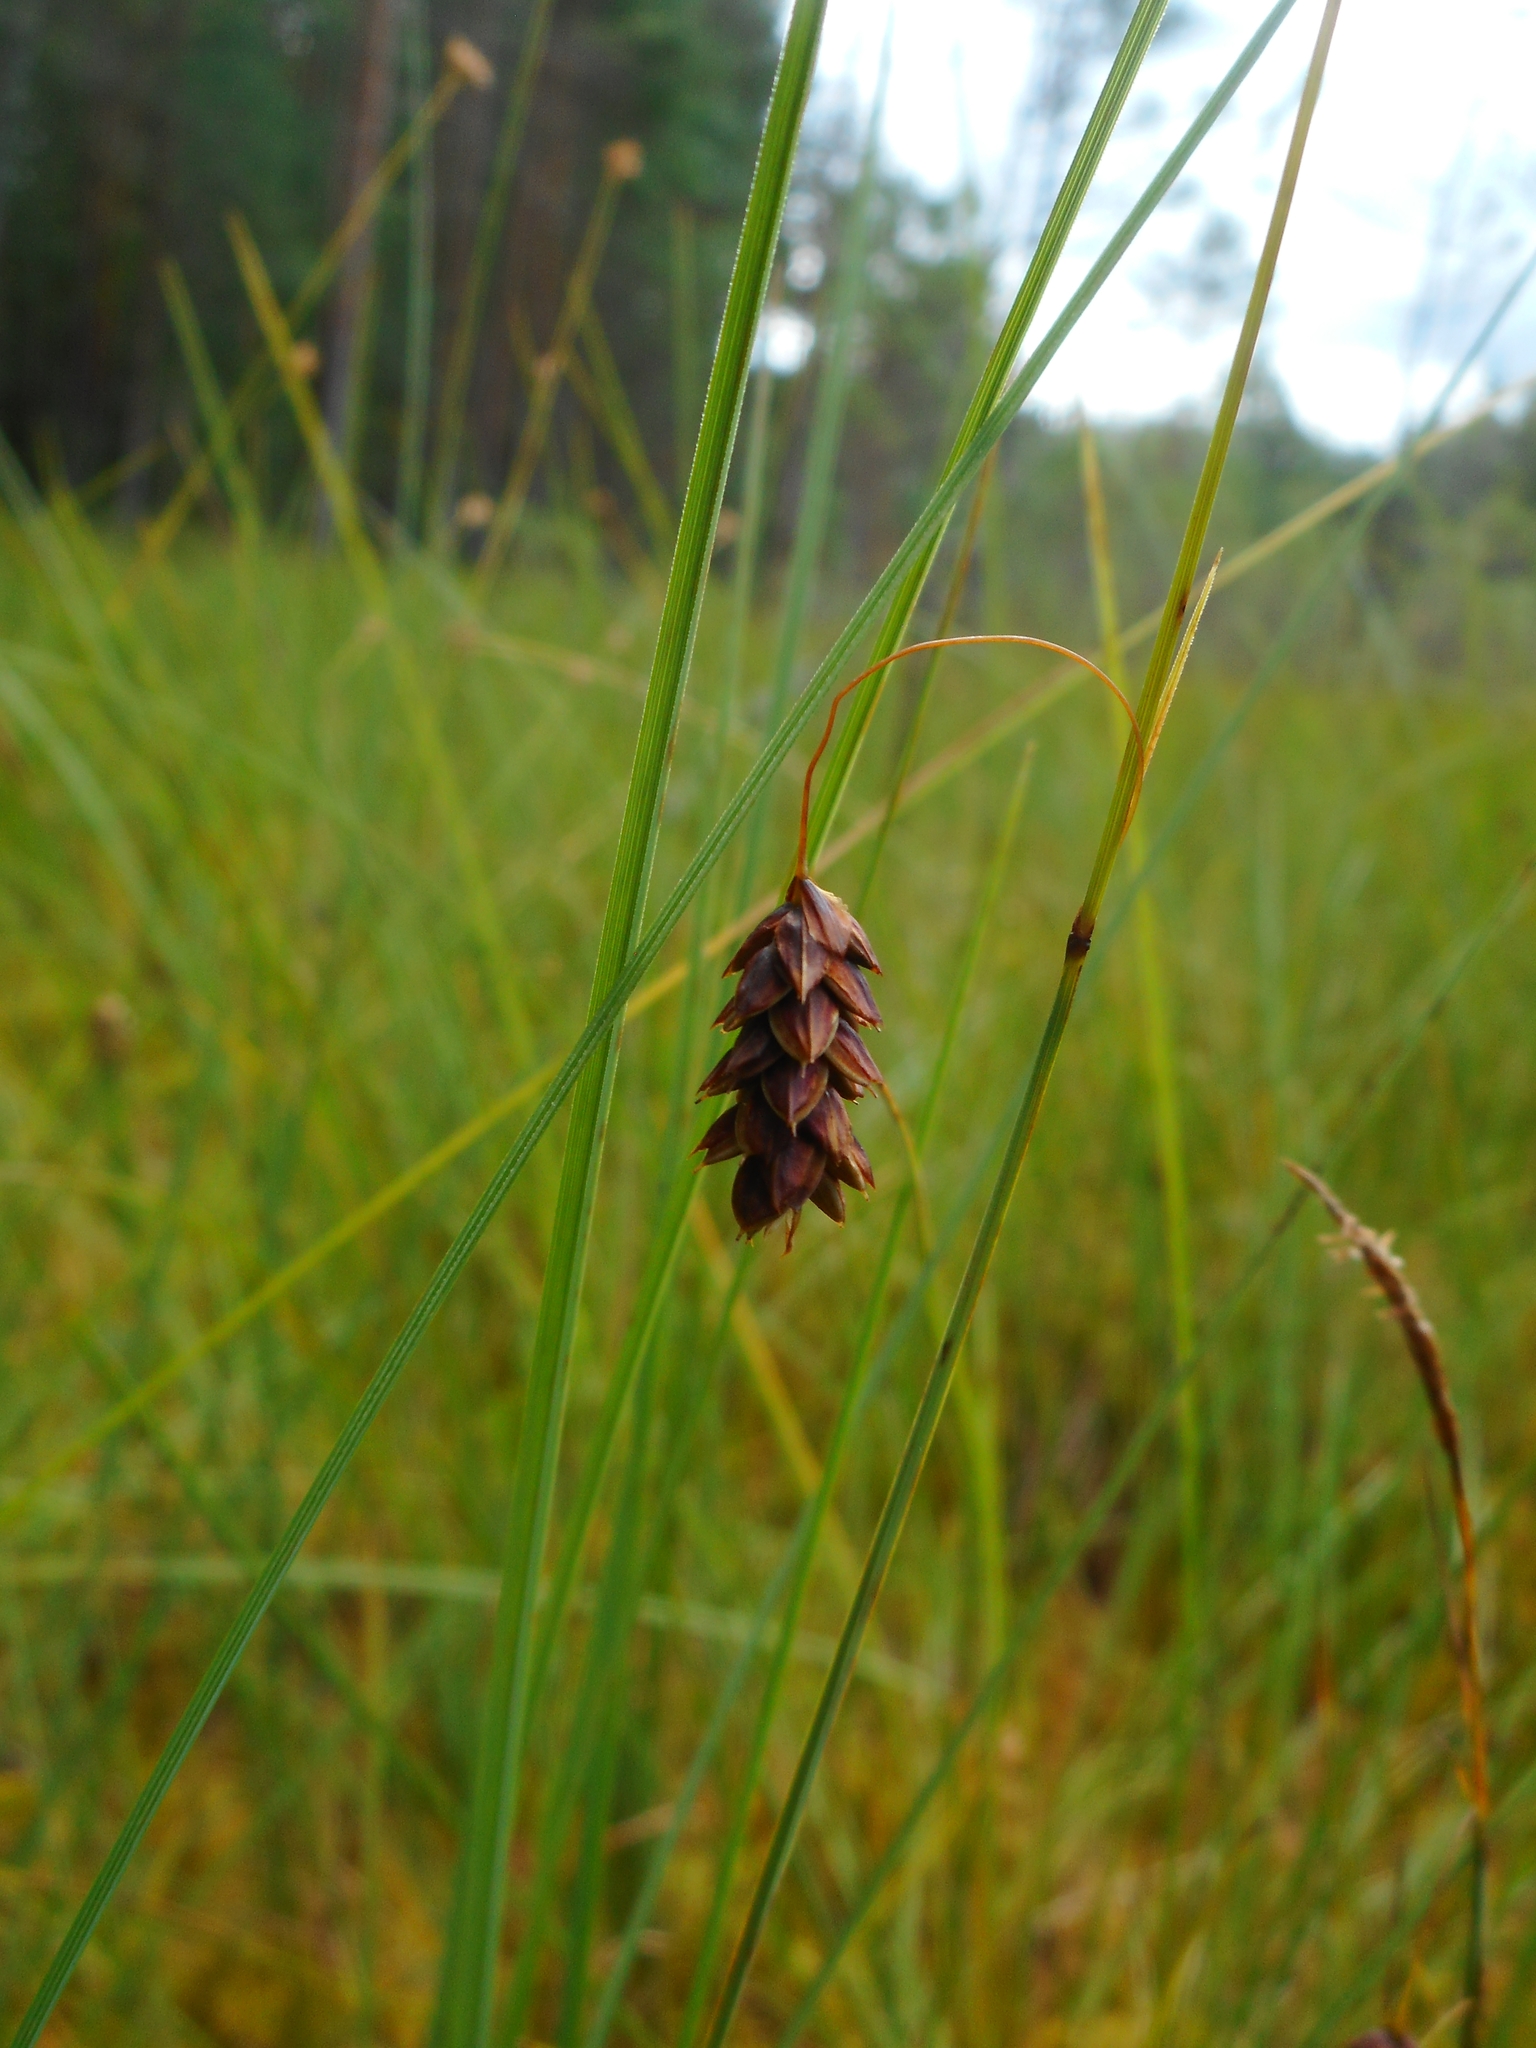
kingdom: Plantae
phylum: Tracheophyta
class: Liliopsida
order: Poales
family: Cyperaceae
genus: Carex
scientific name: Carex limosa
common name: Bog sedge
